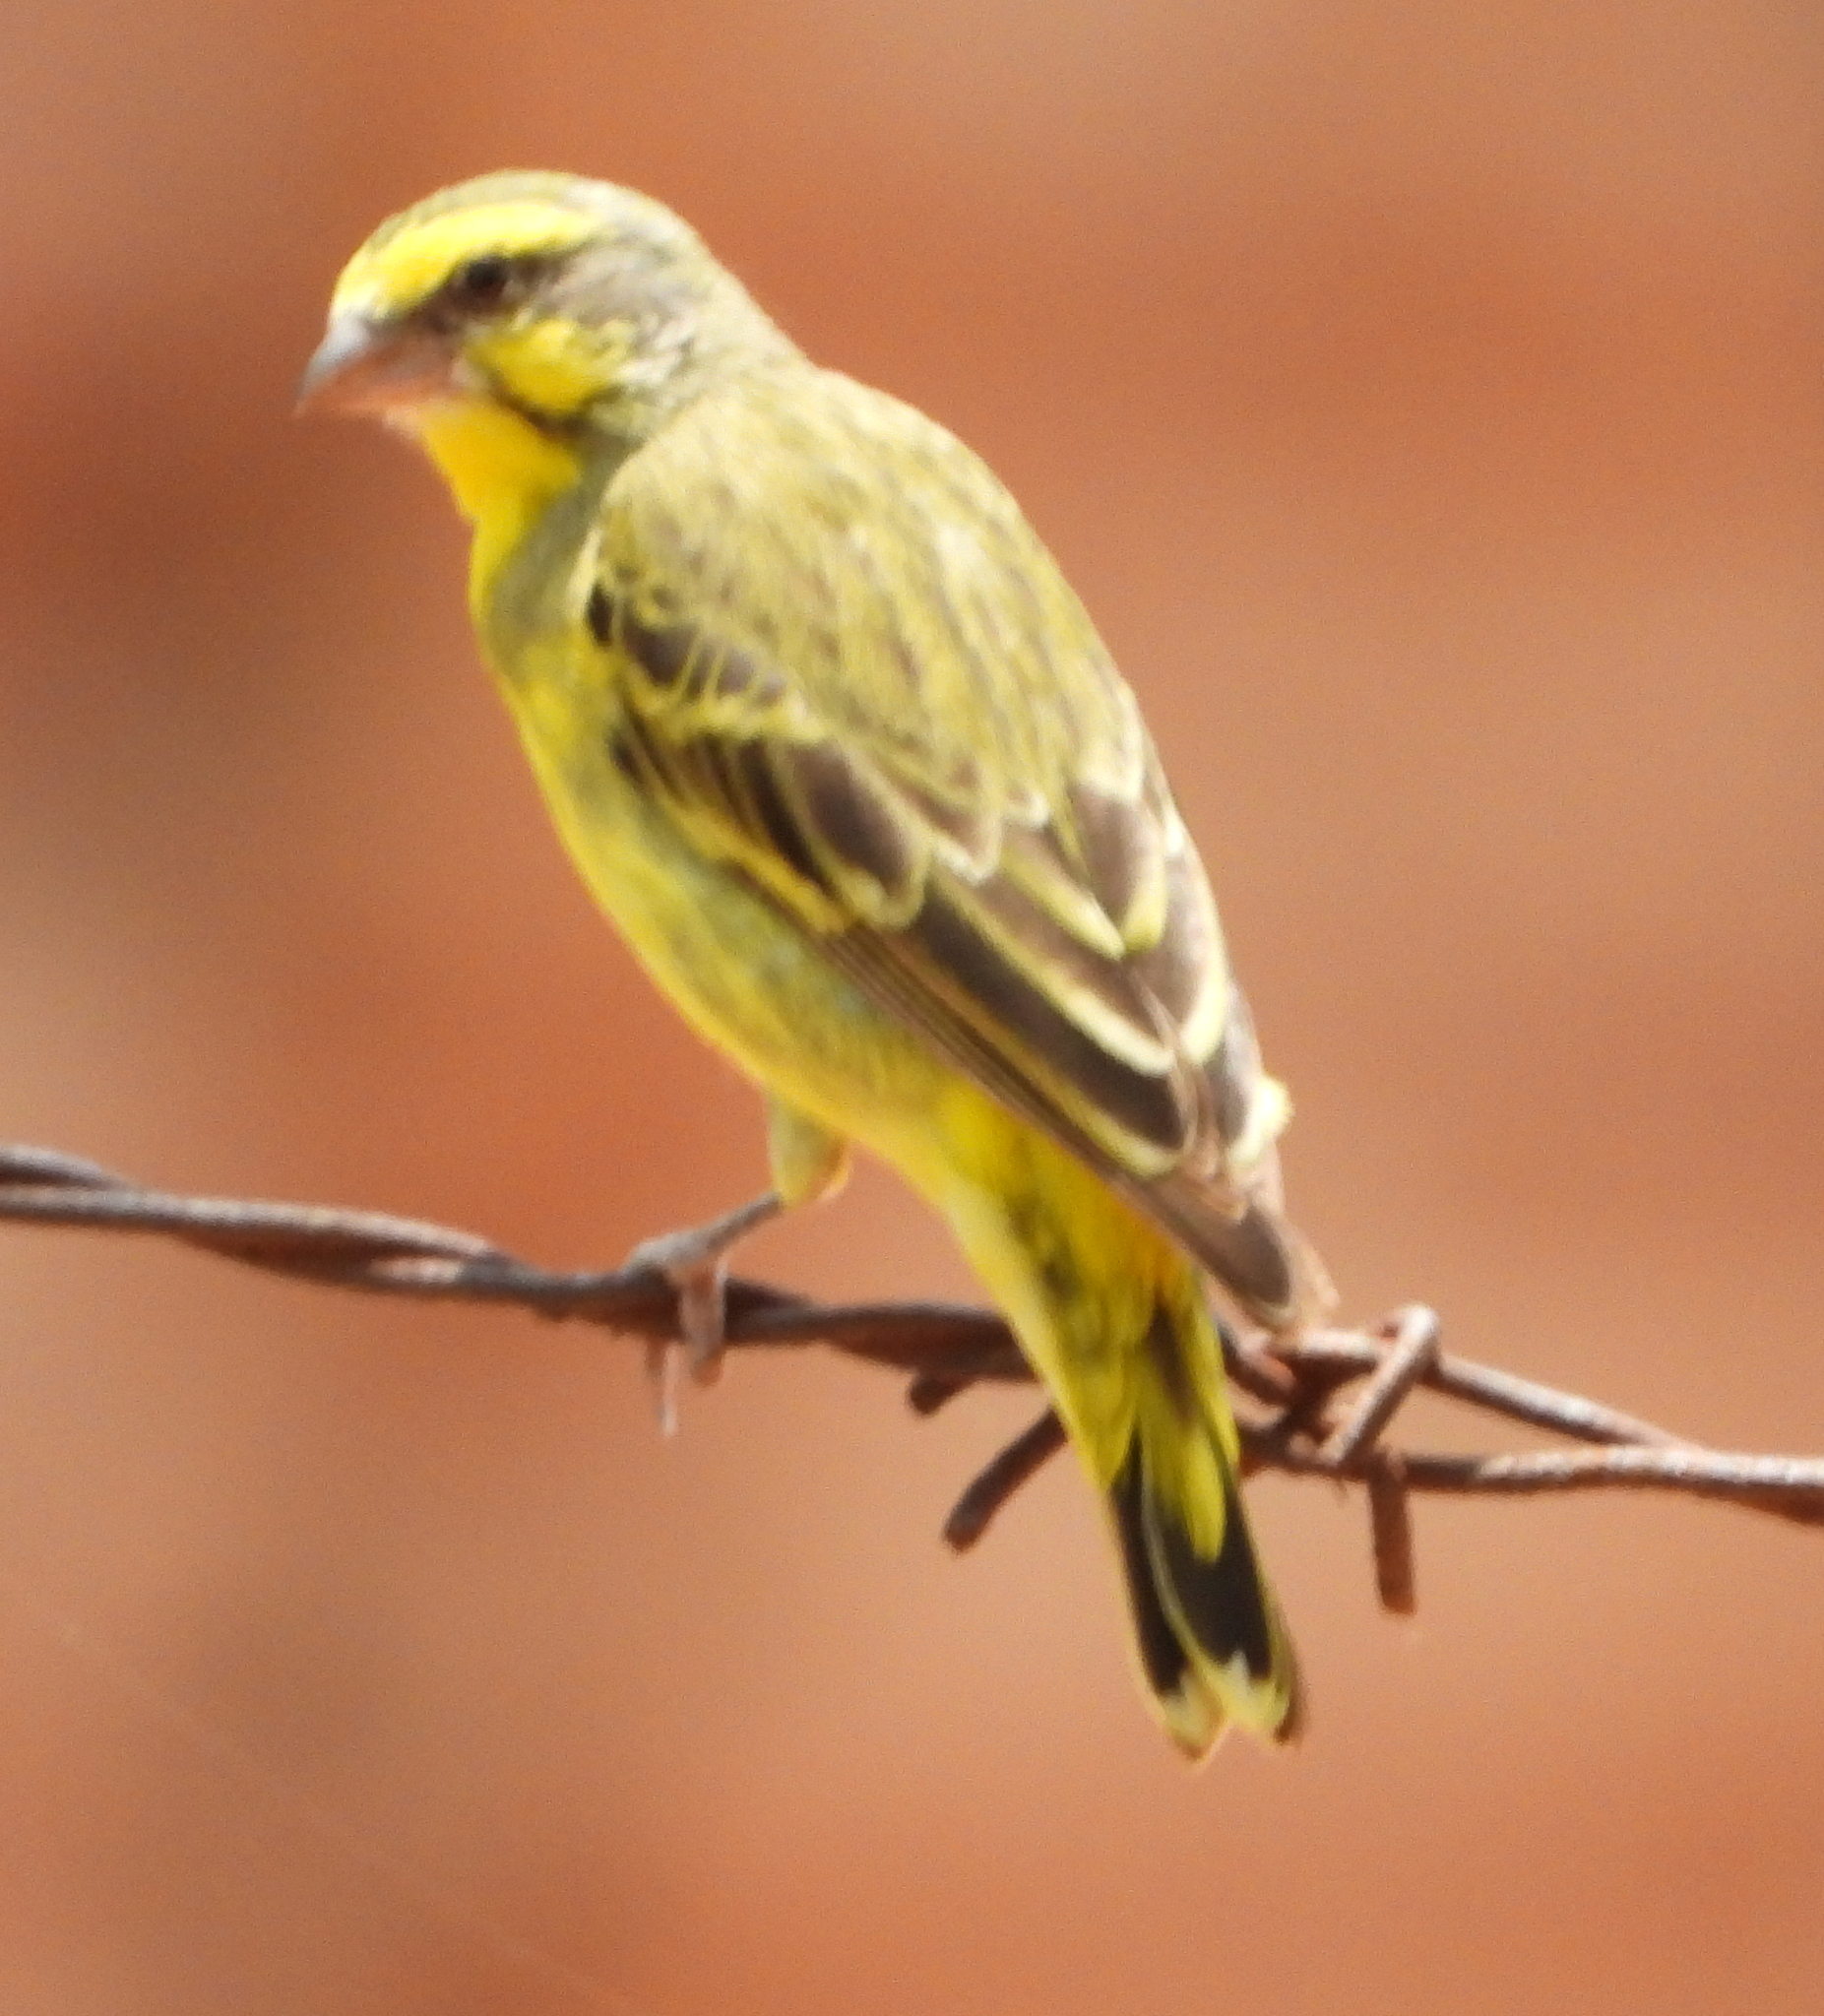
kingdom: Animalia
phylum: Chordata
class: Aves
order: Passeriformes
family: Fringillidae
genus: Crithagra
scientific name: Crithagra mozambica
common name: Yellow-fronted canary
